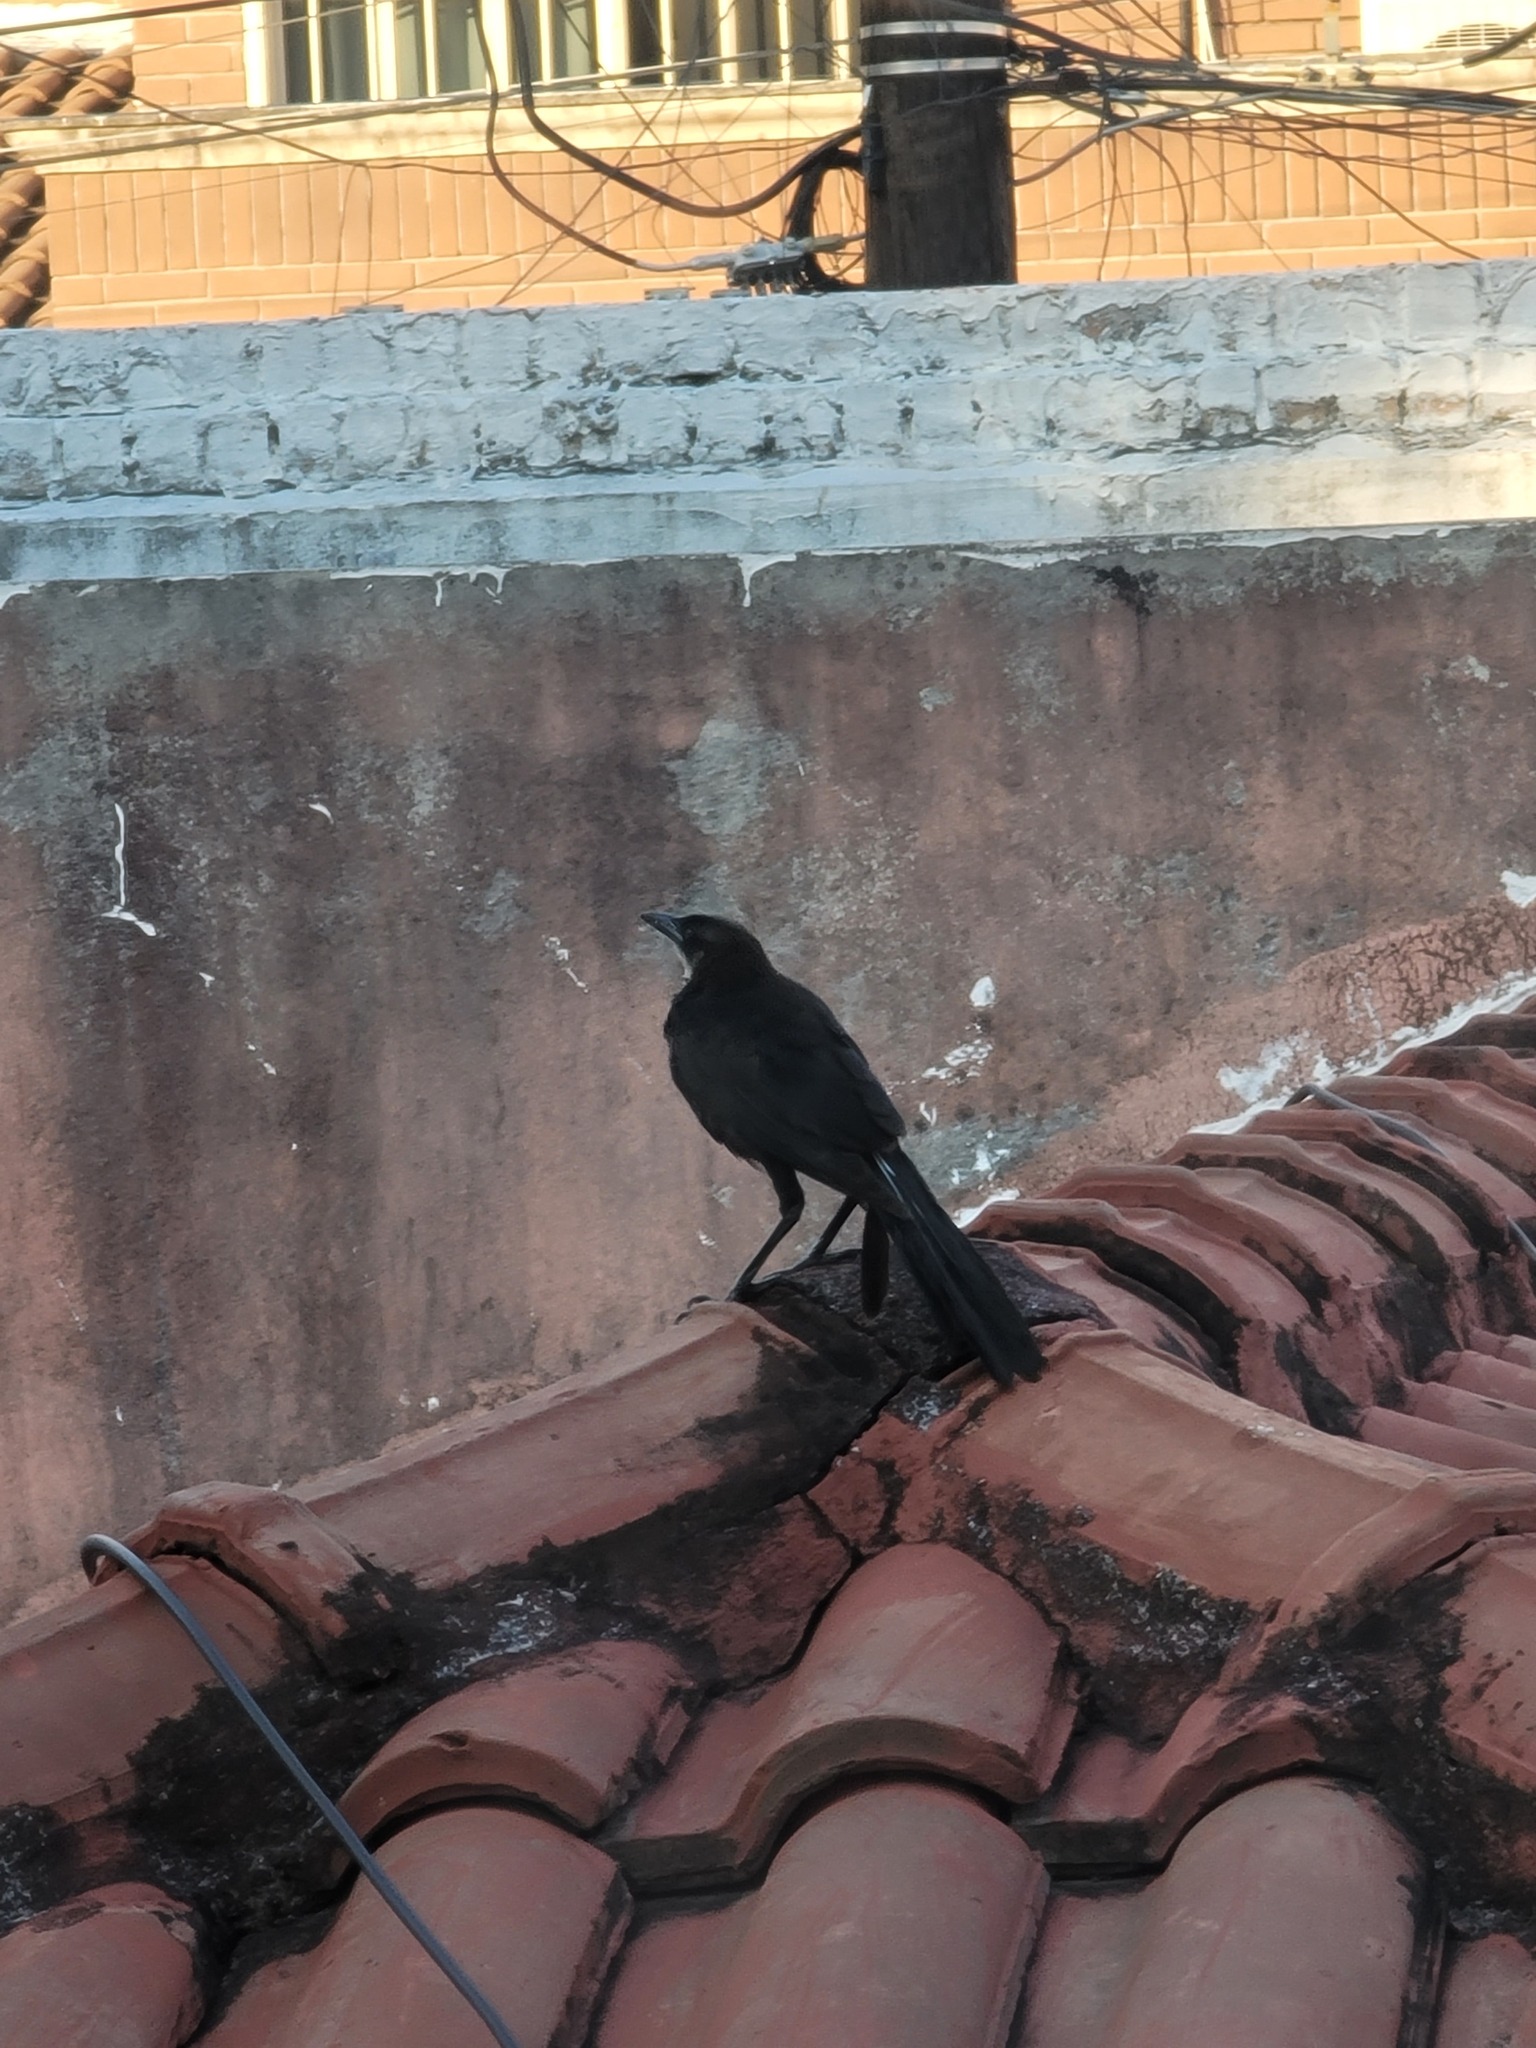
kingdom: Animalia
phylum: Chordata
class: Aves
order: Passeriformes
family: Icteridae
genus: Quiscalus
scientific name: Quiscalus mexicanus
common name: Great-tailed grackle
